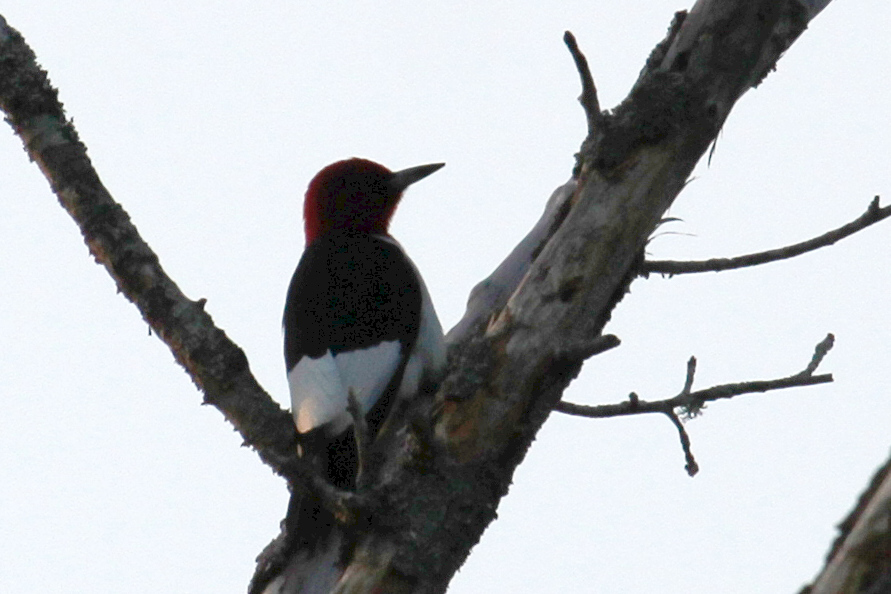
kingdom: Animalia
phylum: Chordata
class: Aves
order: Piciformes
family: Picidae
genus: Melanerpes
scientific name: Melanerpes erythrocephalus
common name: Red-headed woodpecker
